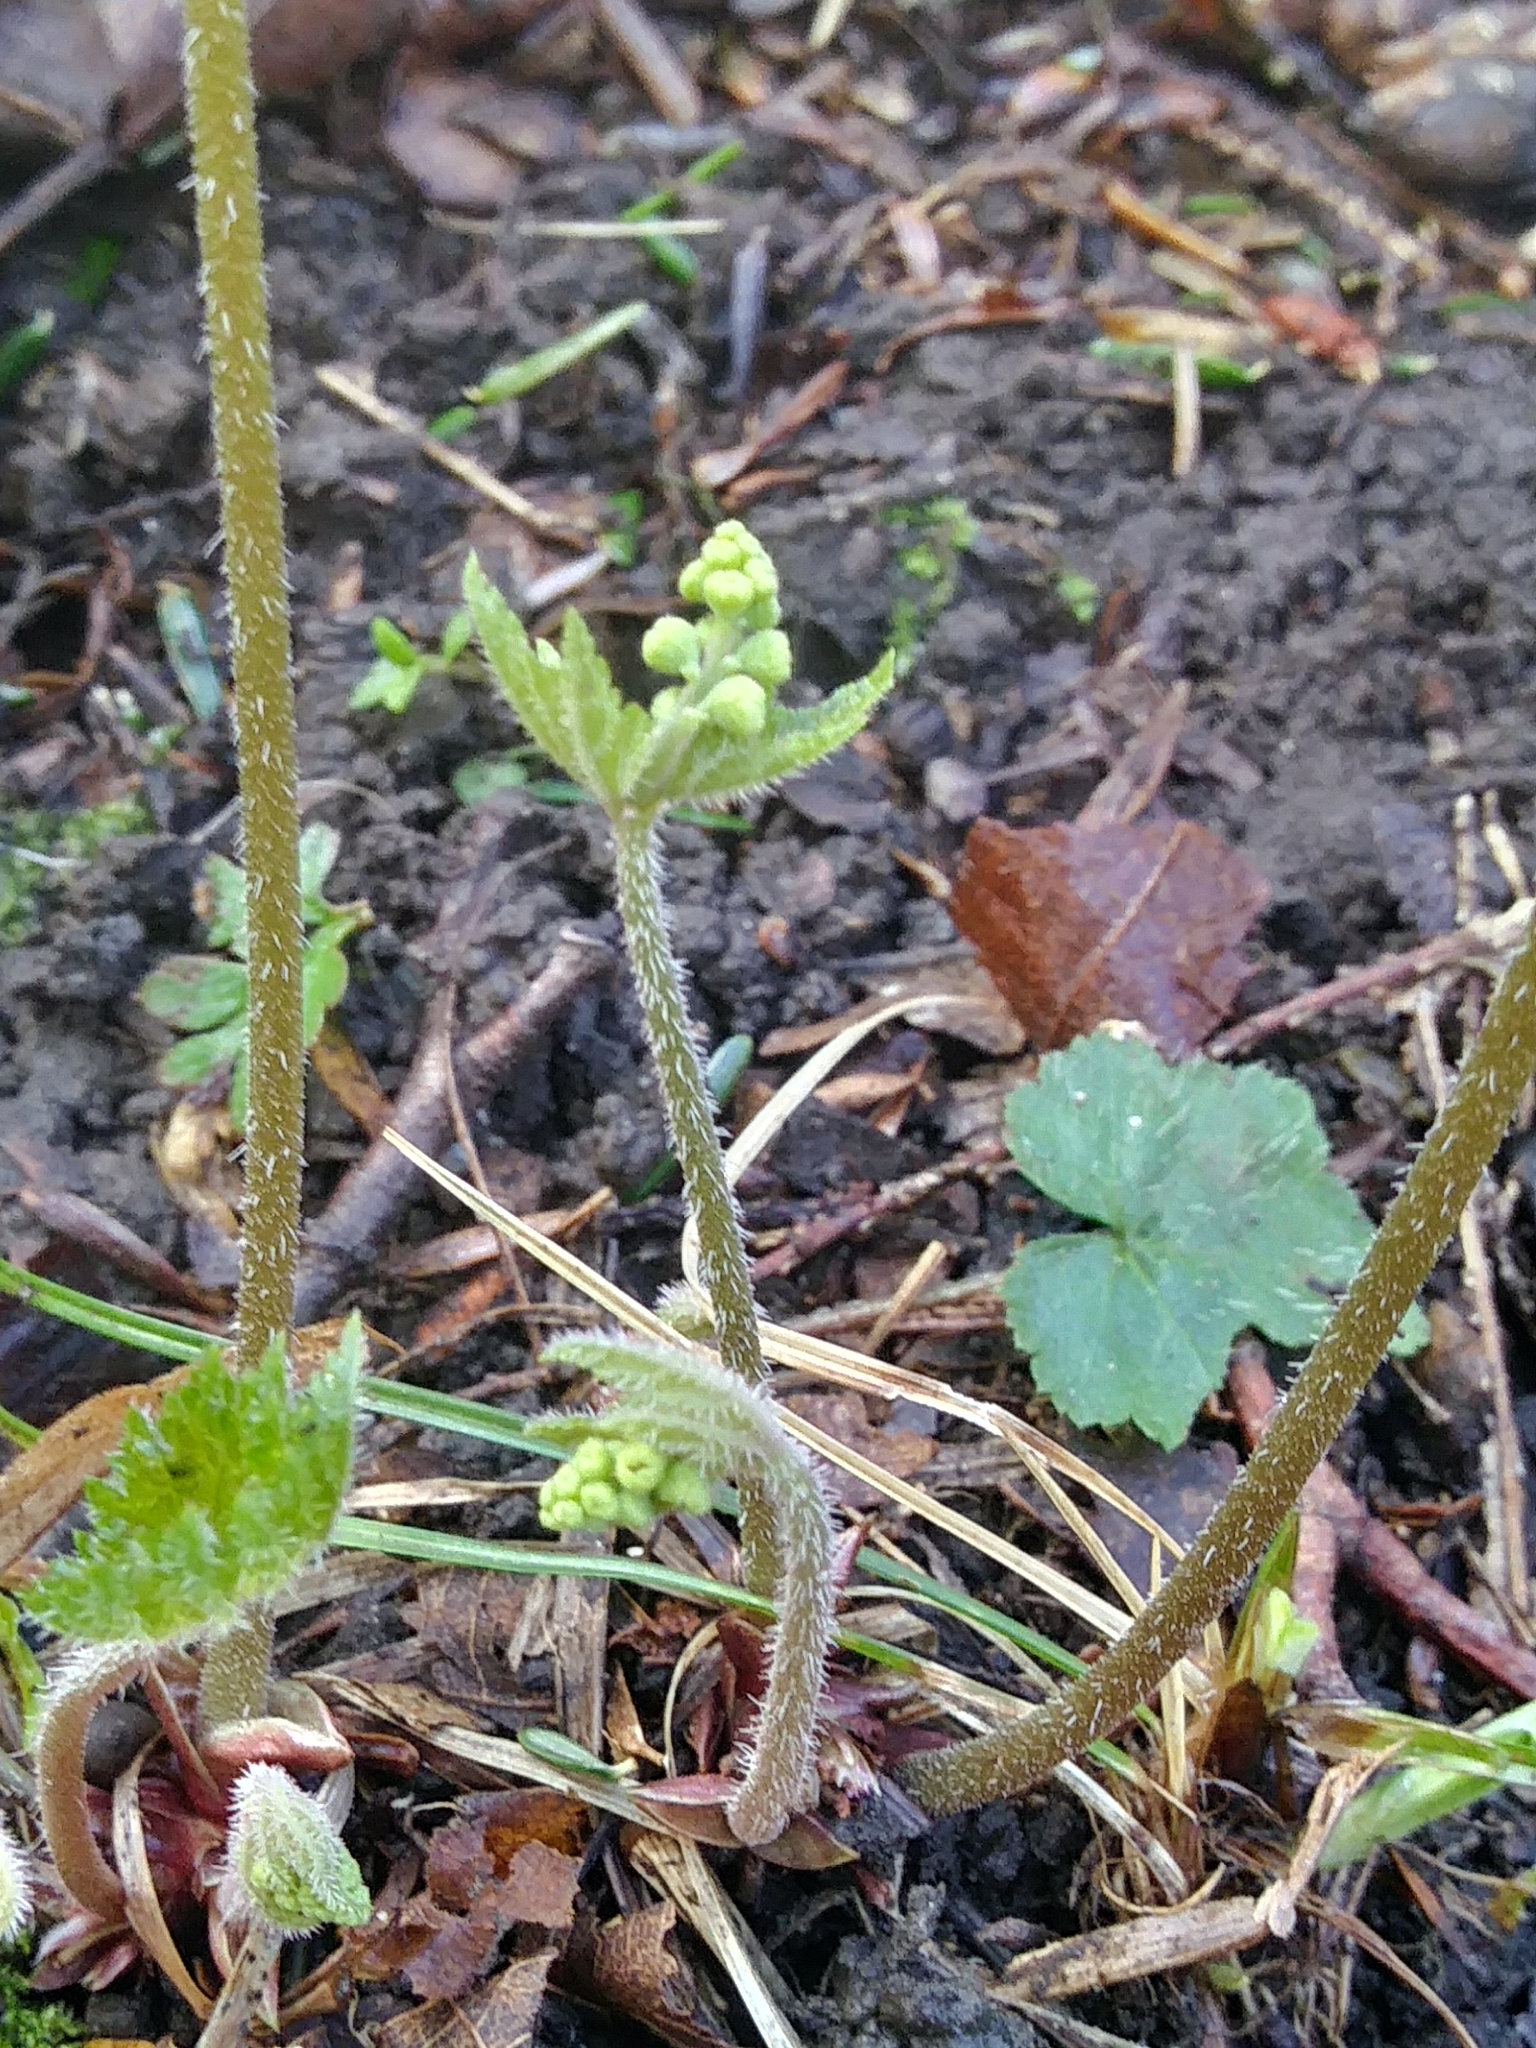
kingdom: Plantae
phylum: Tracheophyta
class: Magnoliopsida
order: Saxifragales
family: Saxifragaceae
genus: Mitella
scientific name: Mitella diphylla
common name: Coolwort
